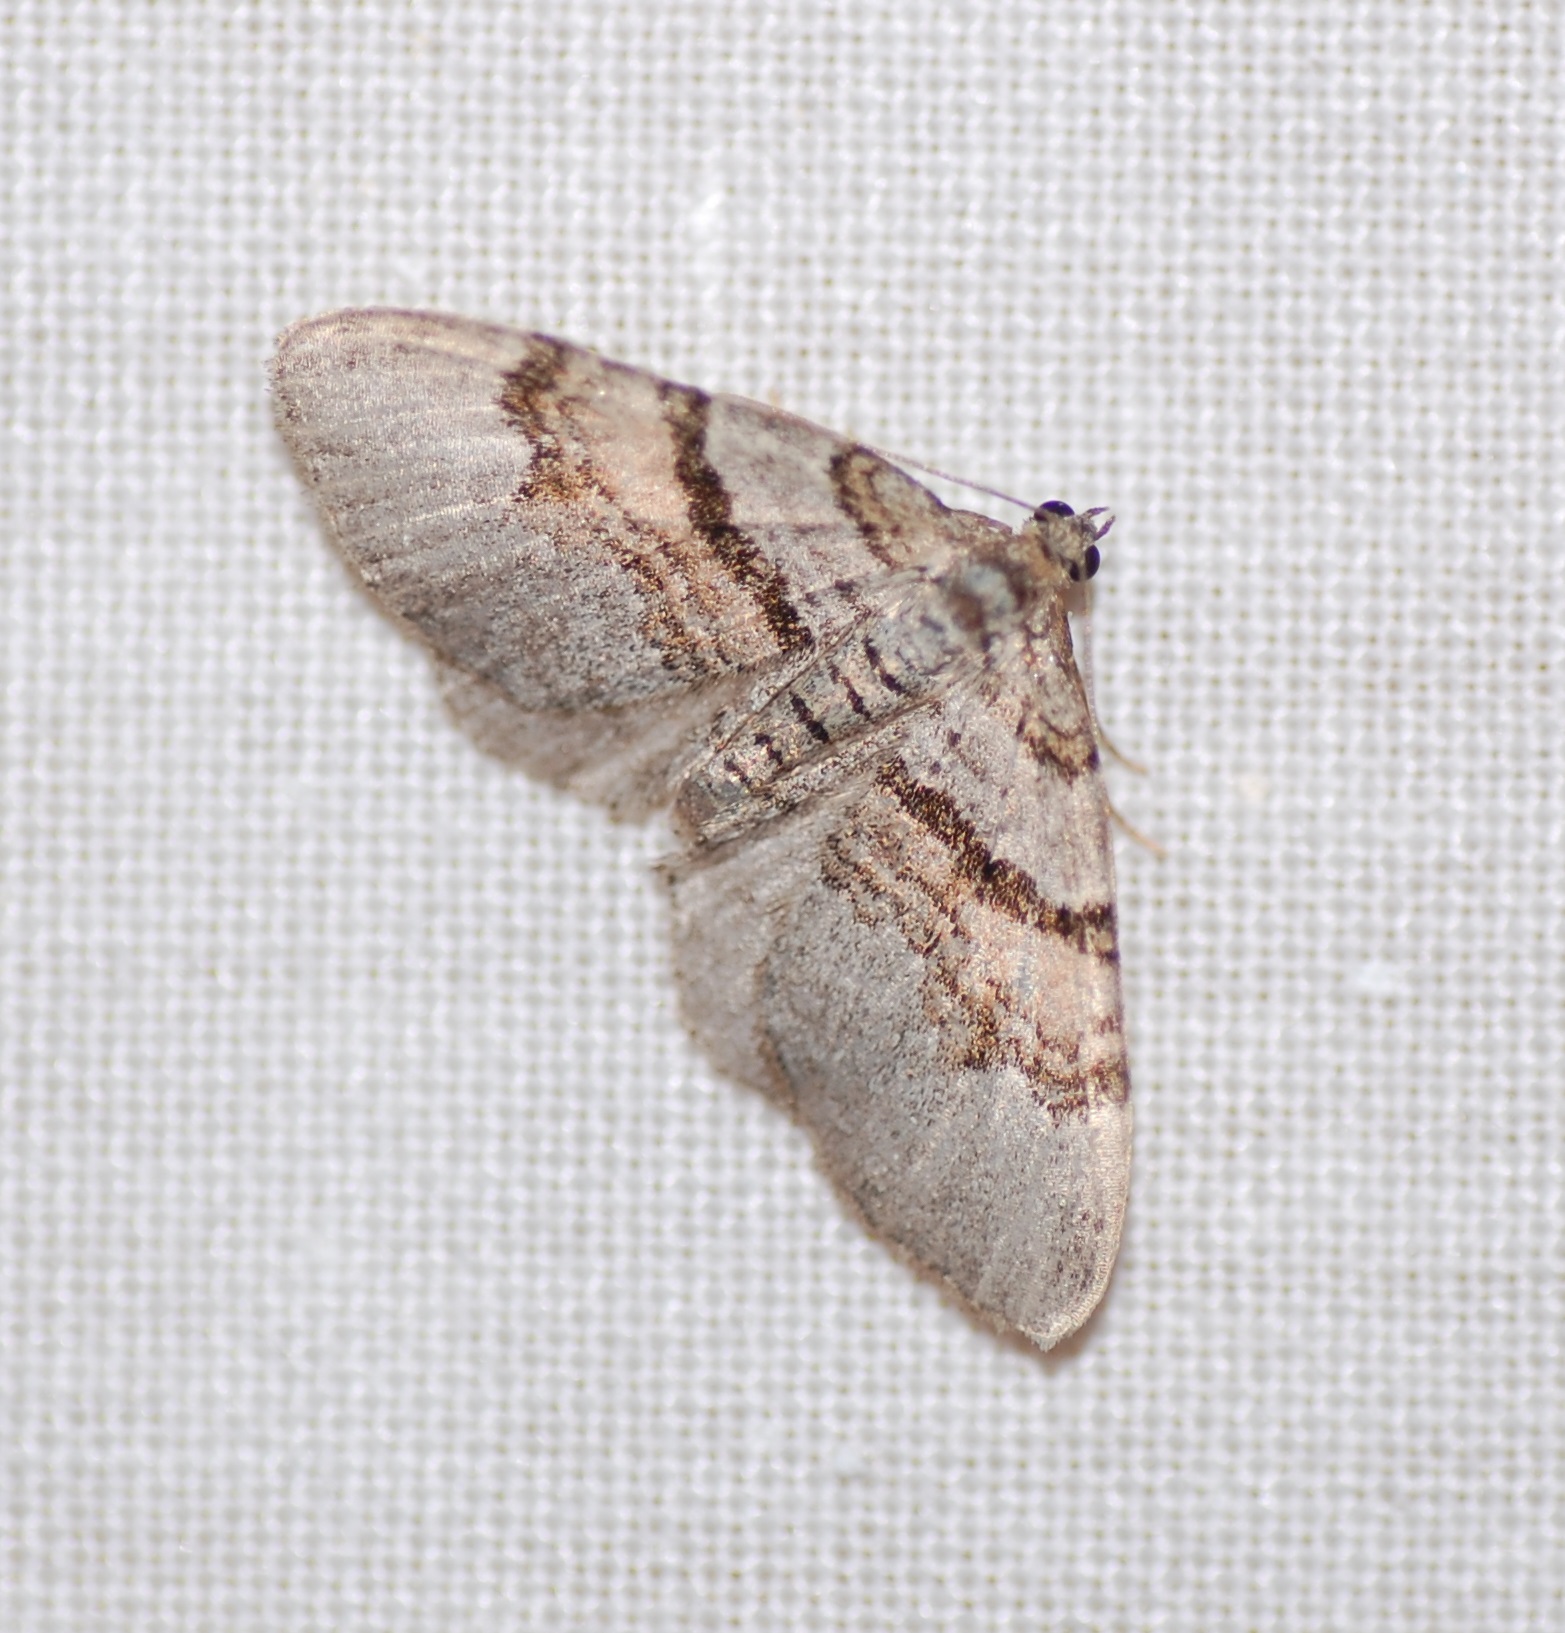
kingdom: Animalia
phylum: Arthropoda
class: Insecta
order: Lepidoptera
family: Geometridae
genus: Xanthorhoe
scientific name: Xanthorhoe labradorensis
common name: Labrador carpet
